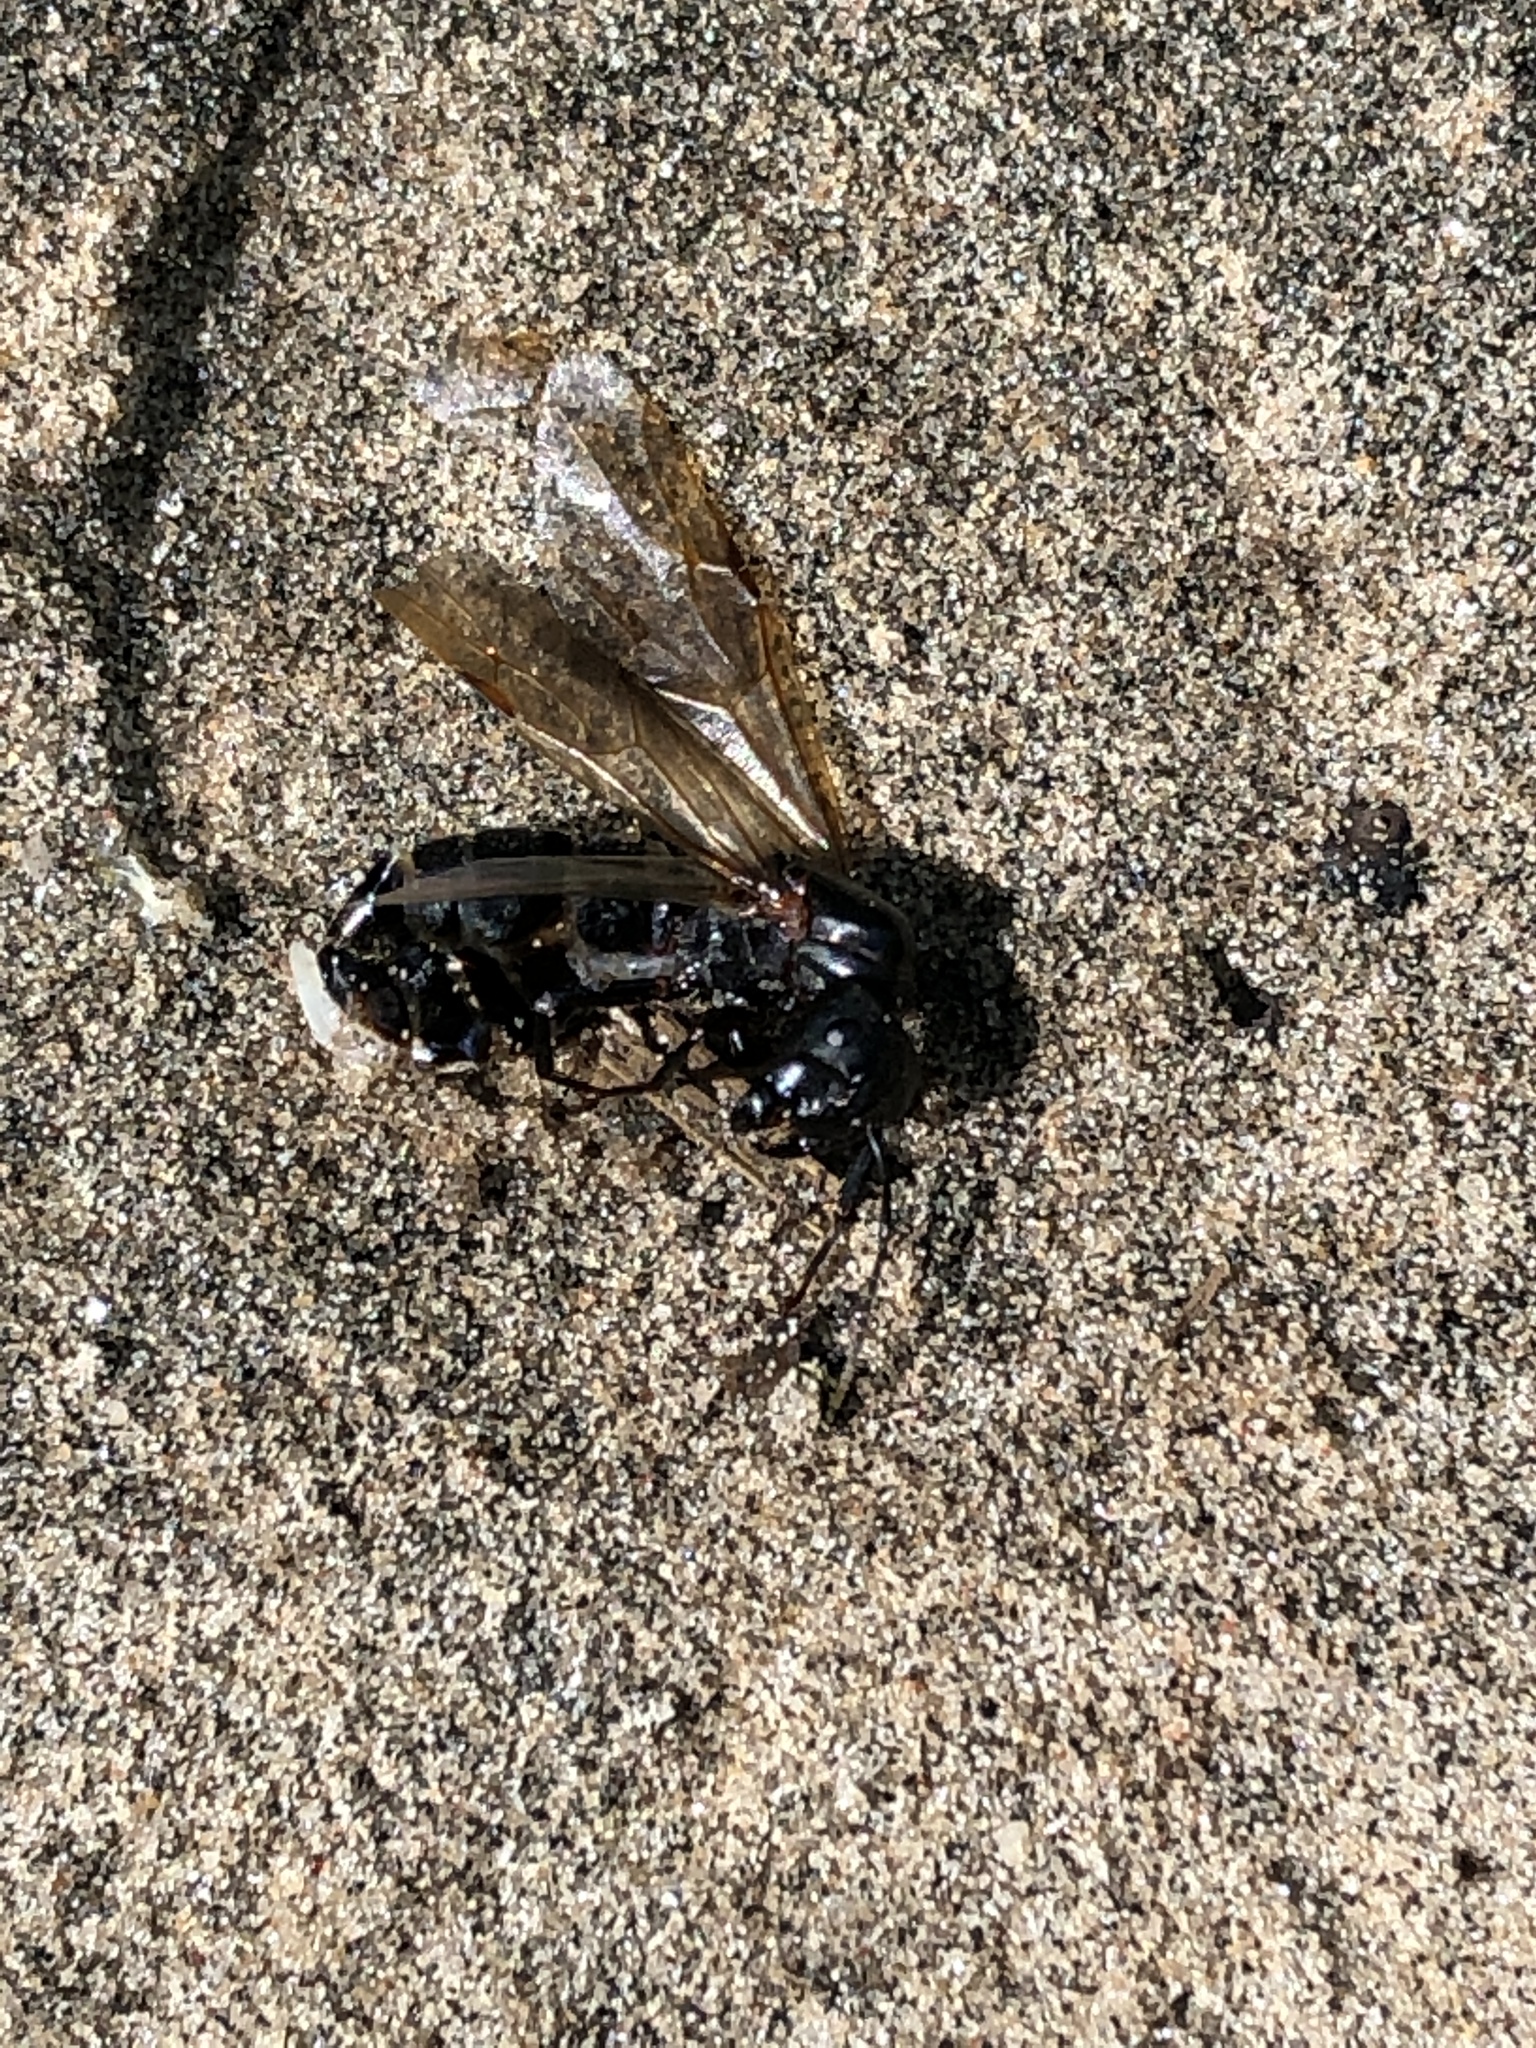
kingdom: Animalia
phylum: Arthropoda
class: Insecta
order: Hymenoptera
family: Formicidae
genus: Camponotus
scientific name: Camponotus pennsylvanicus
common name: Black carpenter ant
